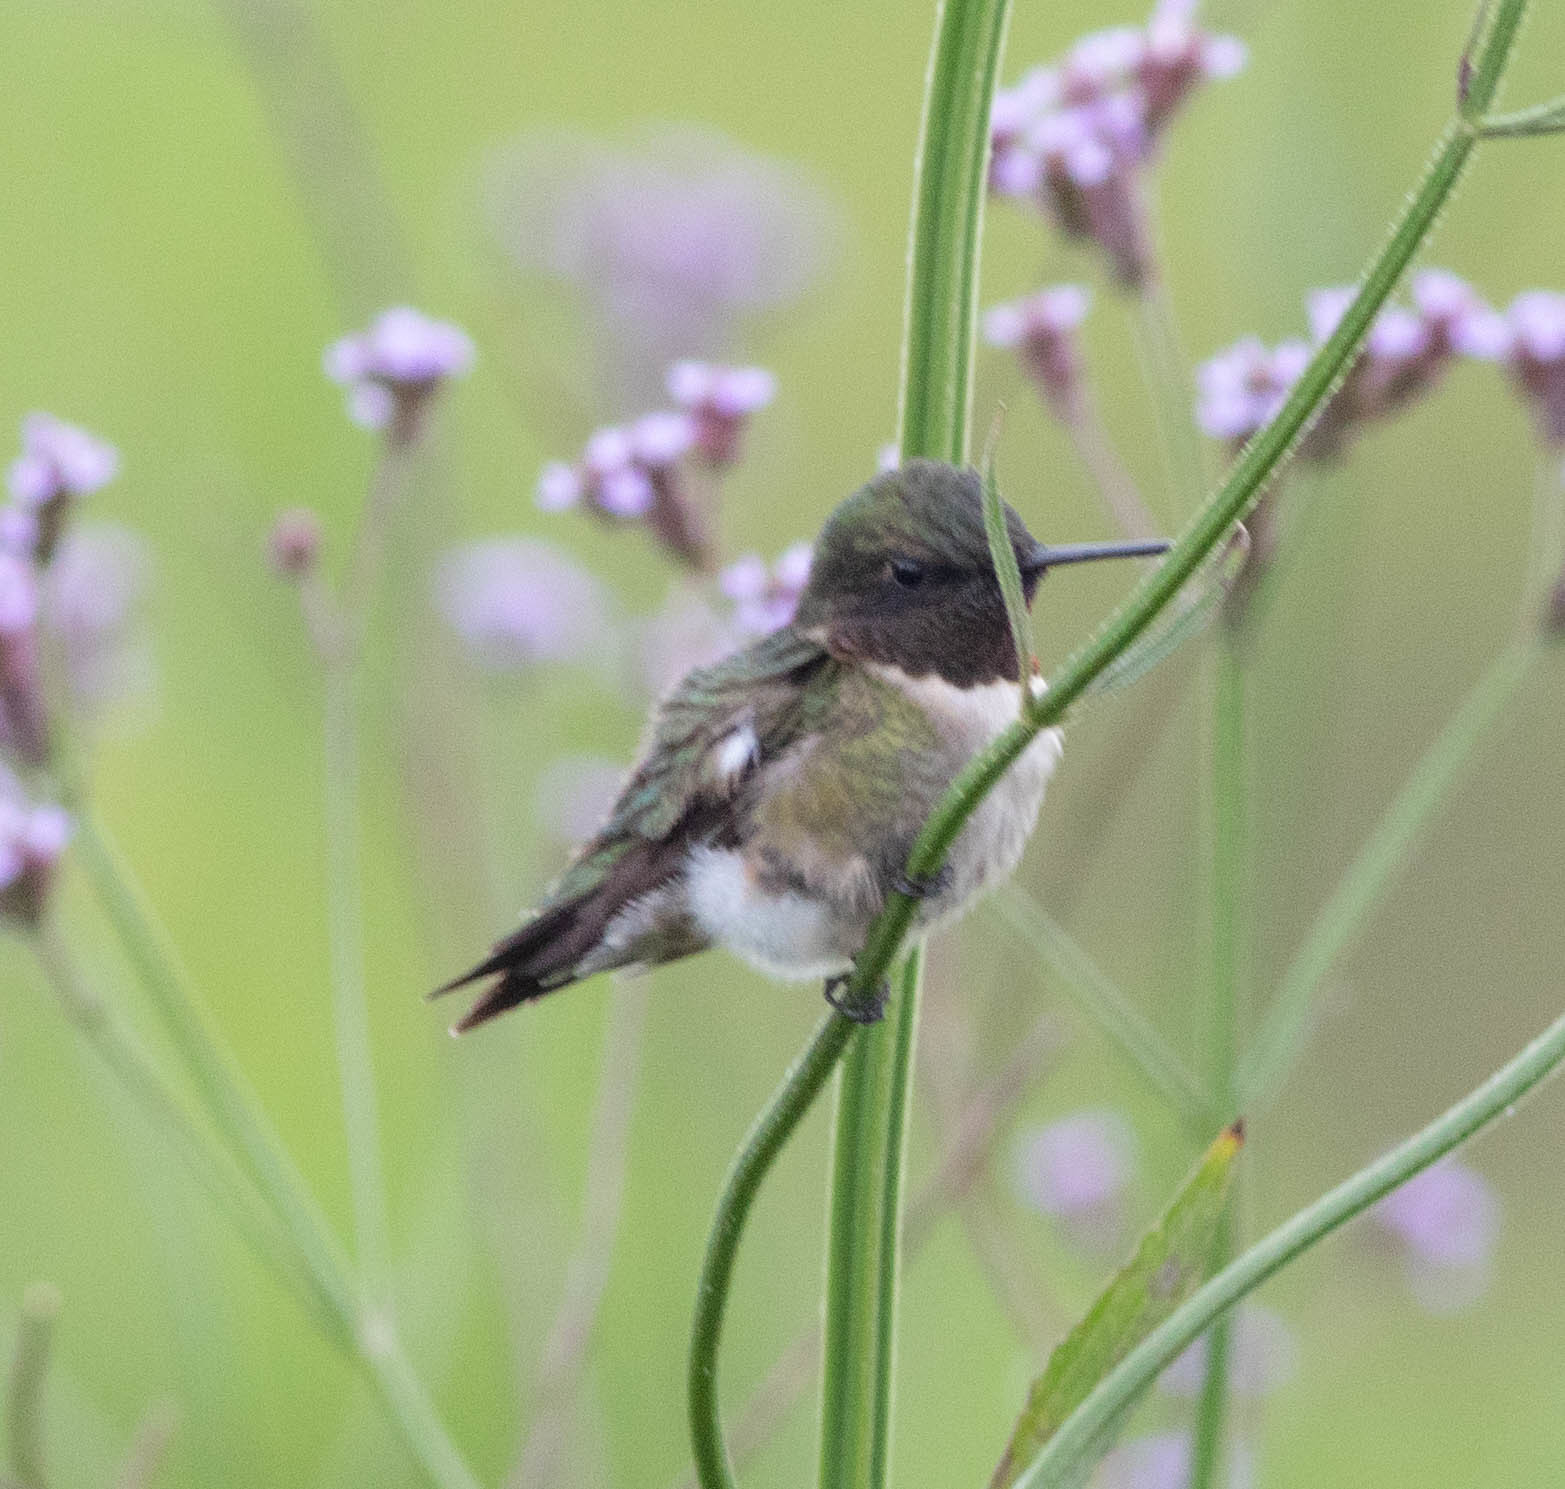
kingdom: Animalia
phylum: Chordata
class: Aves
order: Apodiformes
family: Trochilidae
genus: Archilochus
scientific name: Archilochus colubris
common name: Ruby-throated hummingbird
